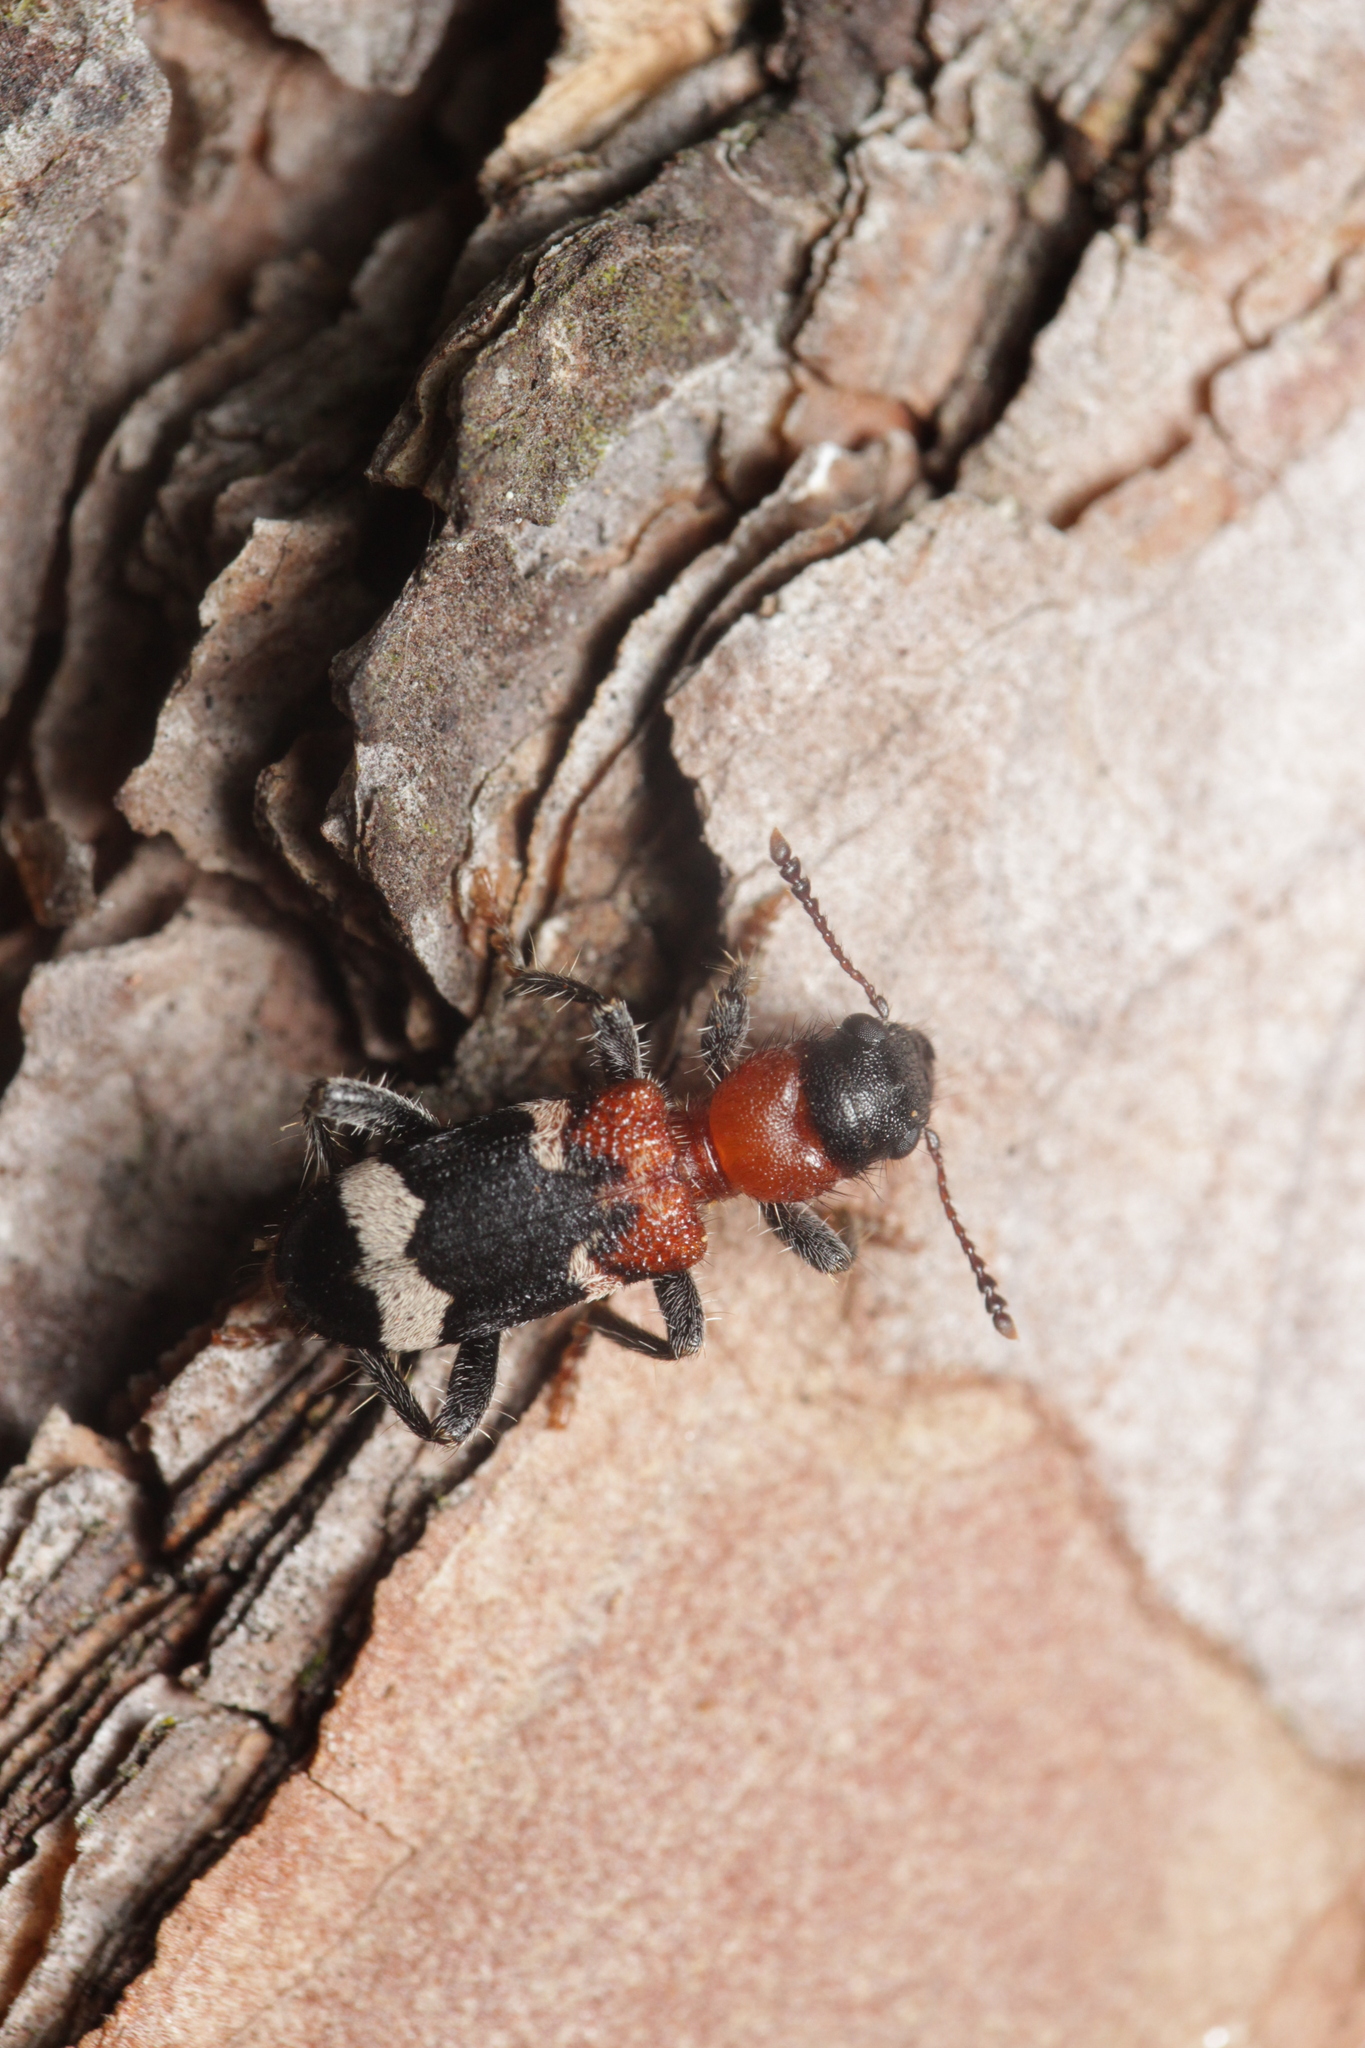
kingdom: Animalia
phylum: Arthropoda
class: Insecta
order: Coleoptera
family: Cleridae
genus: Thanasimus
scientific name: Thanasimus formicarius
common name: Ant beetle
